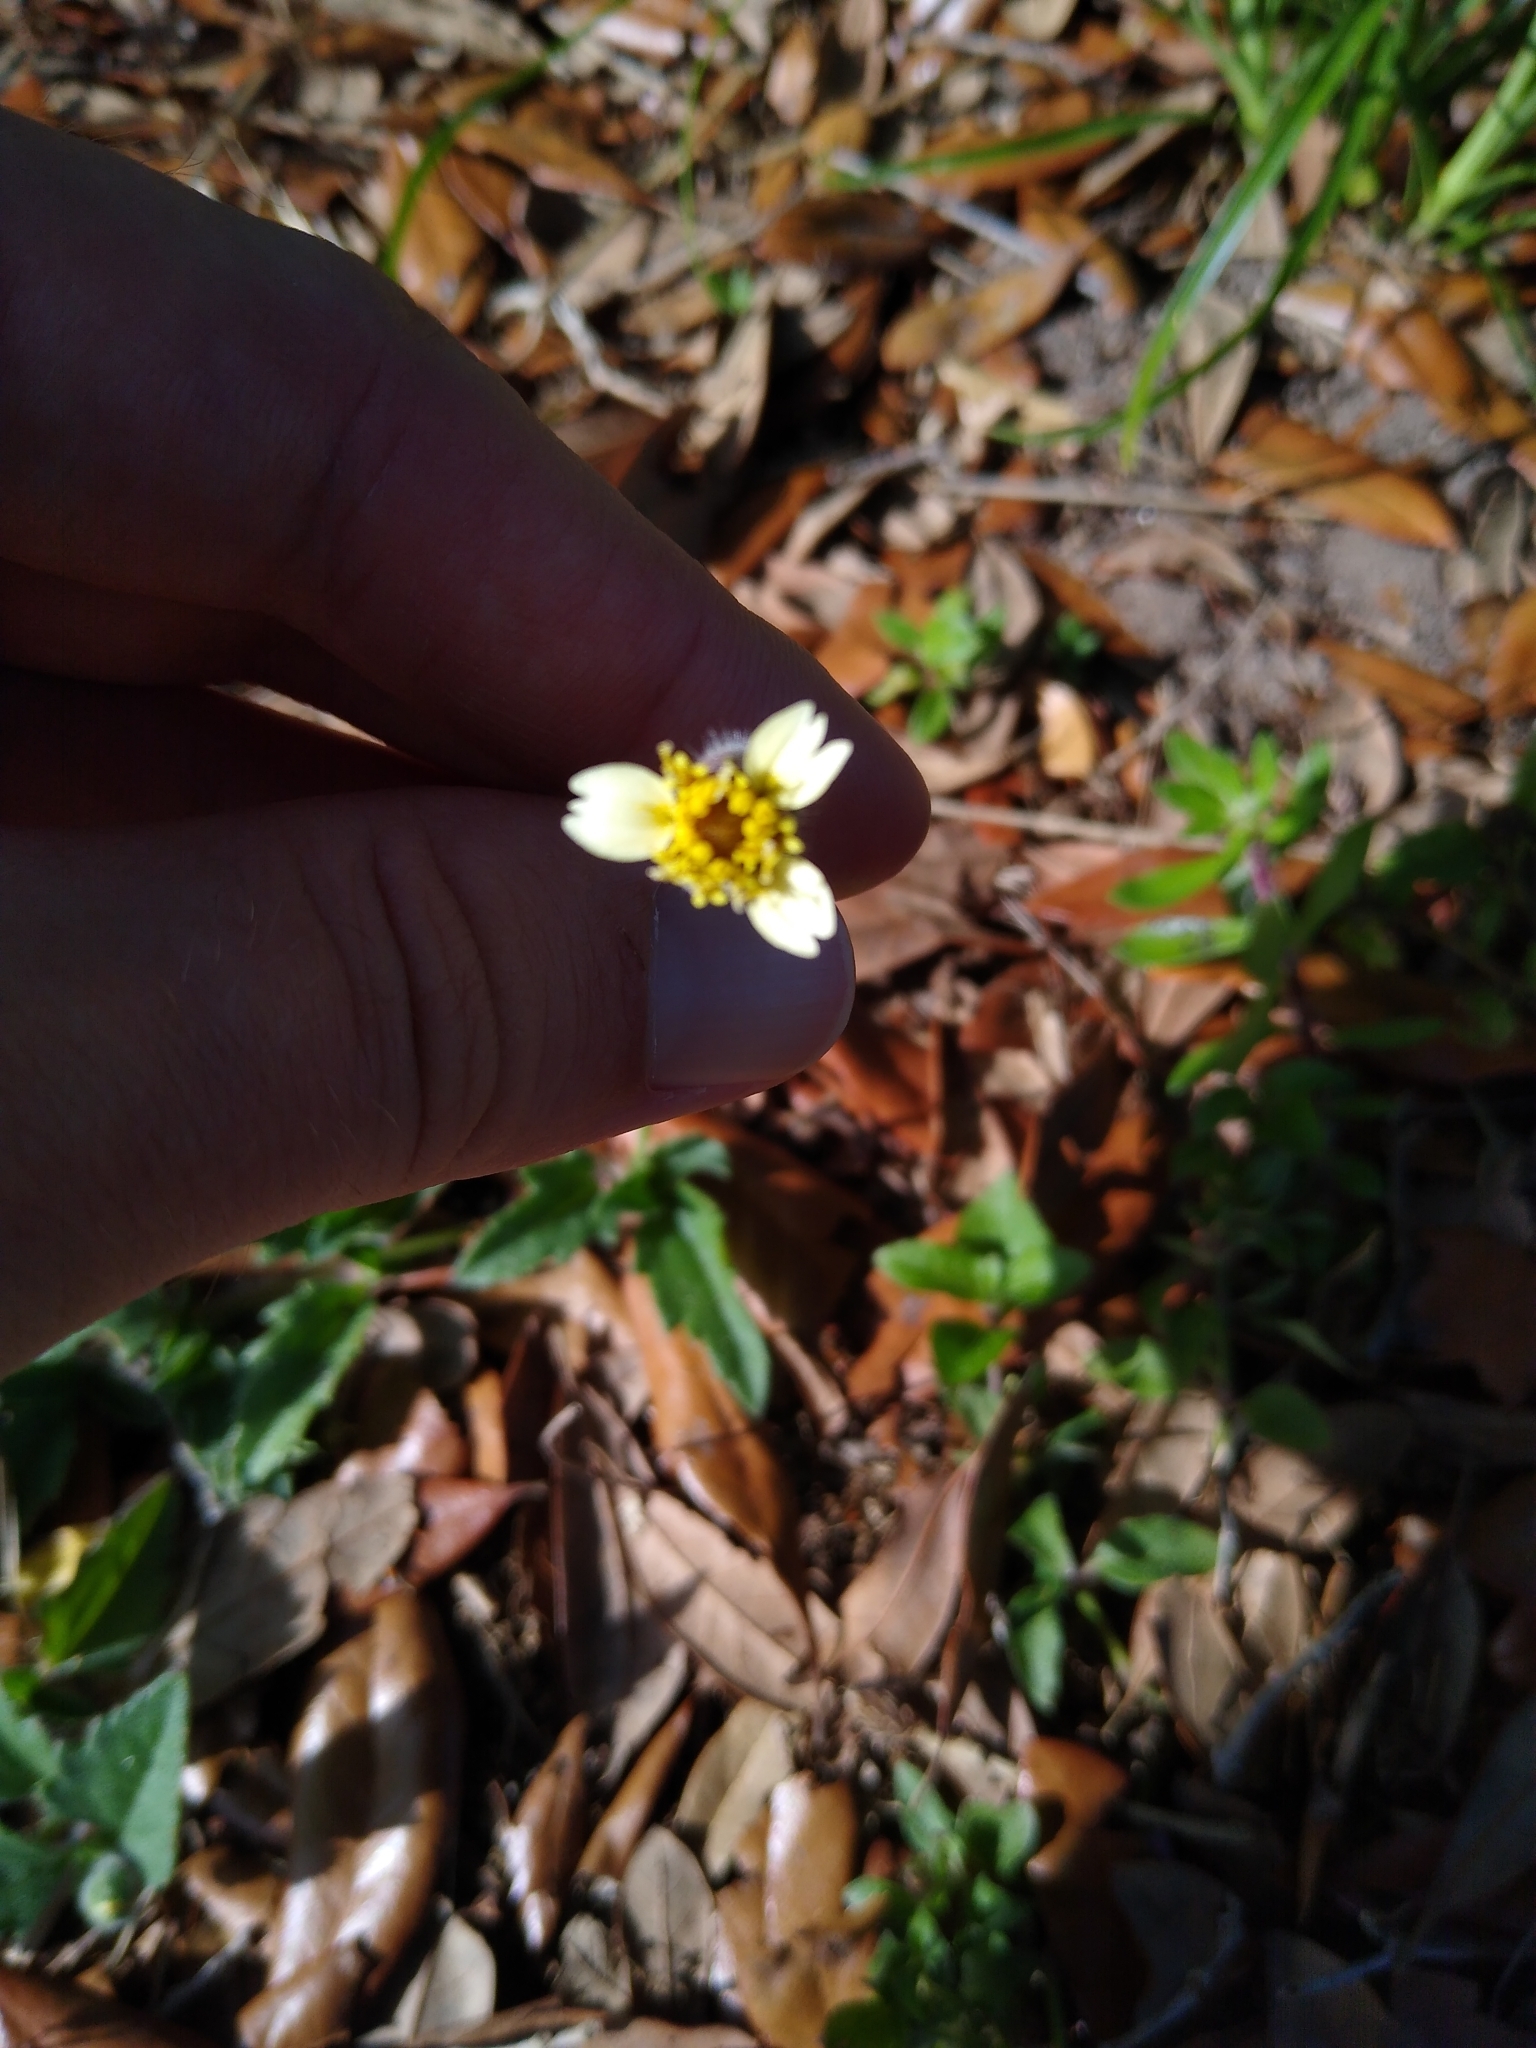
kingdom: Plantae
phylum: Tracheophyta
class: Magnoliopsida
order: Asterales
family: Asteraceae
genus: Tridax
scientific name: Tridax procumbens
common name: Coatbuttons
